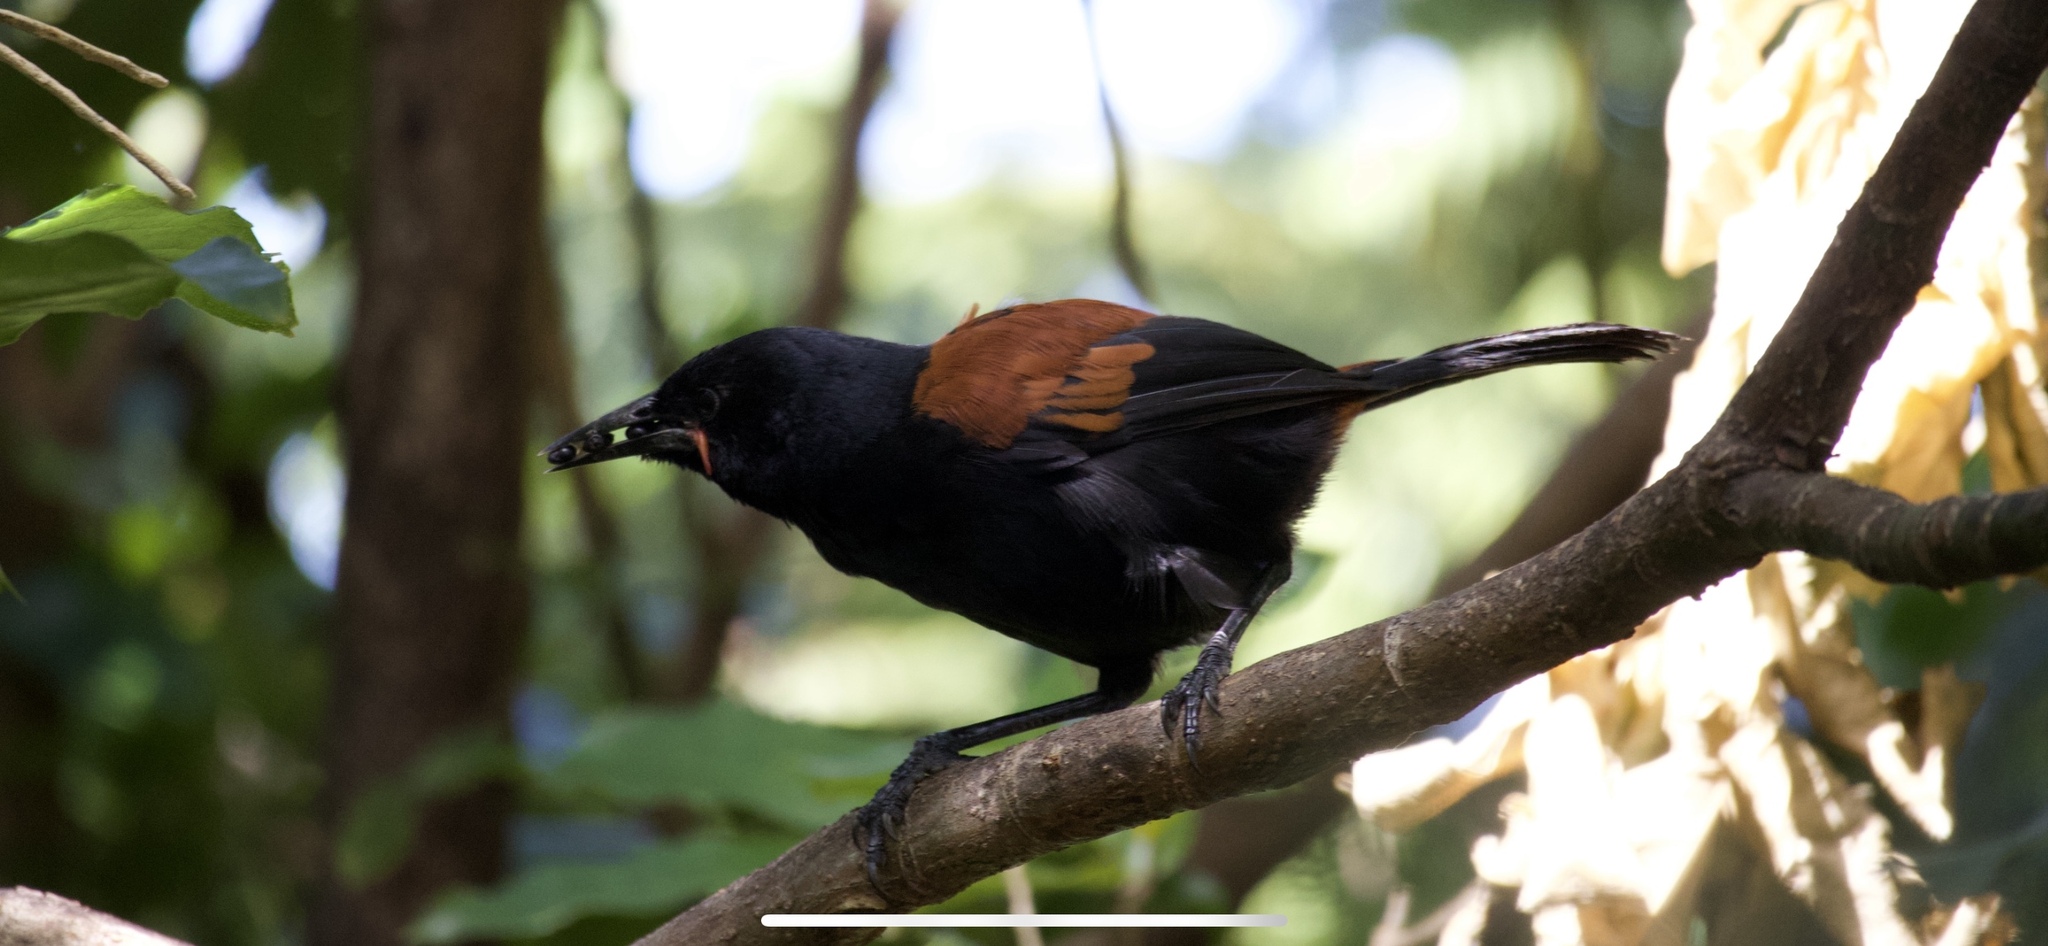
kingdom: Animalia
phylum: Chordata
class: Aves
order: Passeriformes
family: Callaeatidae
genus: Philesturnus
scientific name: Philesturnus carunculatus
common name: South island saddleback
